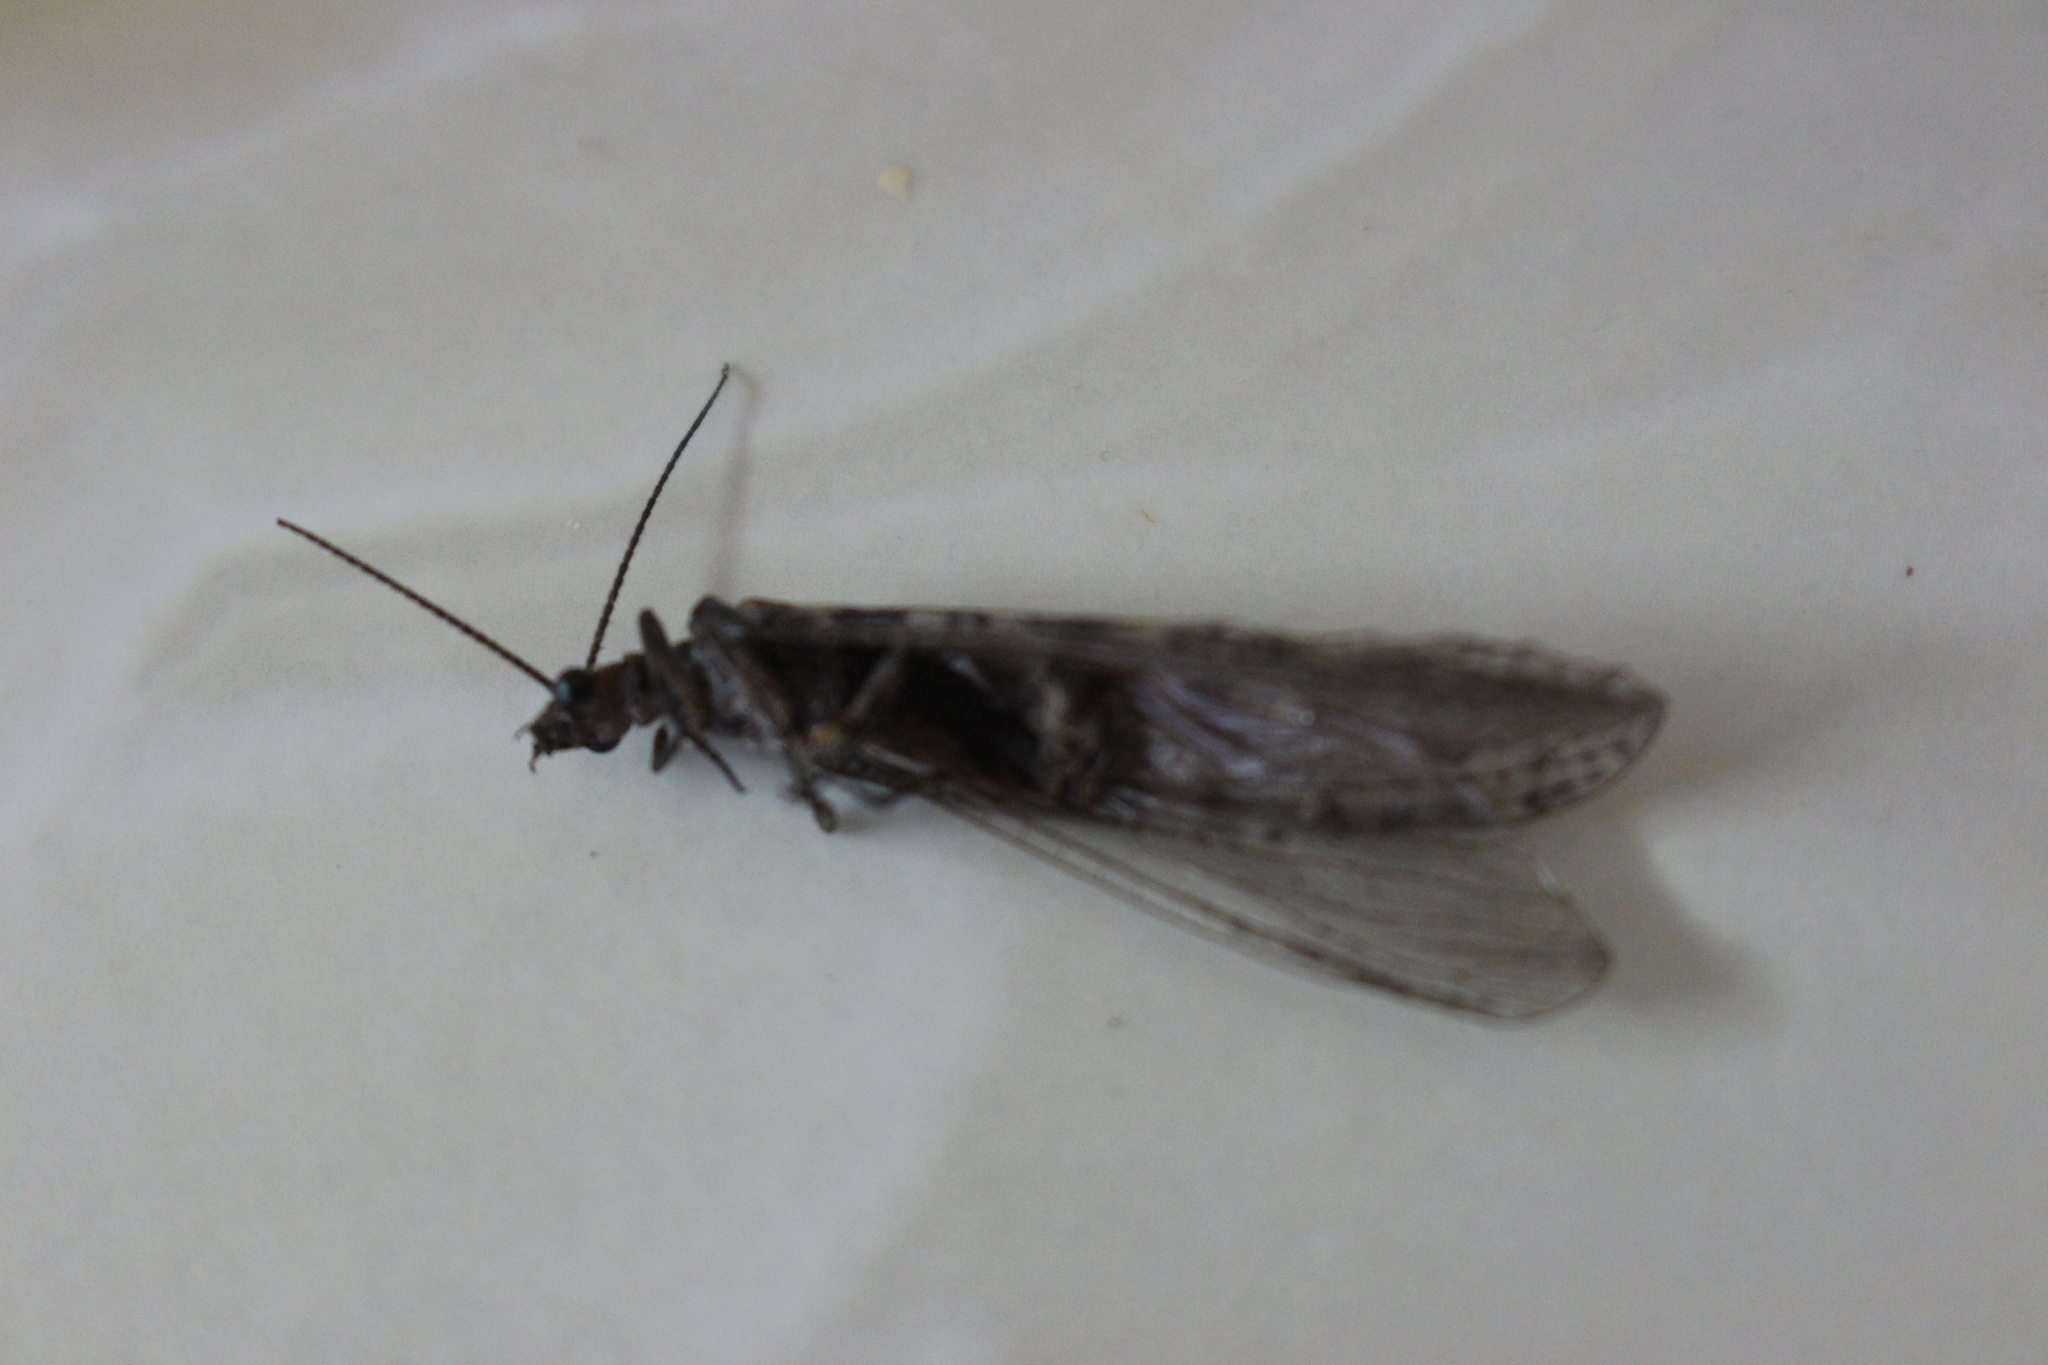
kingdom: Animalia
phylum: Arthropoda
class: Insecta
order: Megaloptera
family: Corydalidae
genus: Archichauliodes
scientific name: Archichauliodes diversus
